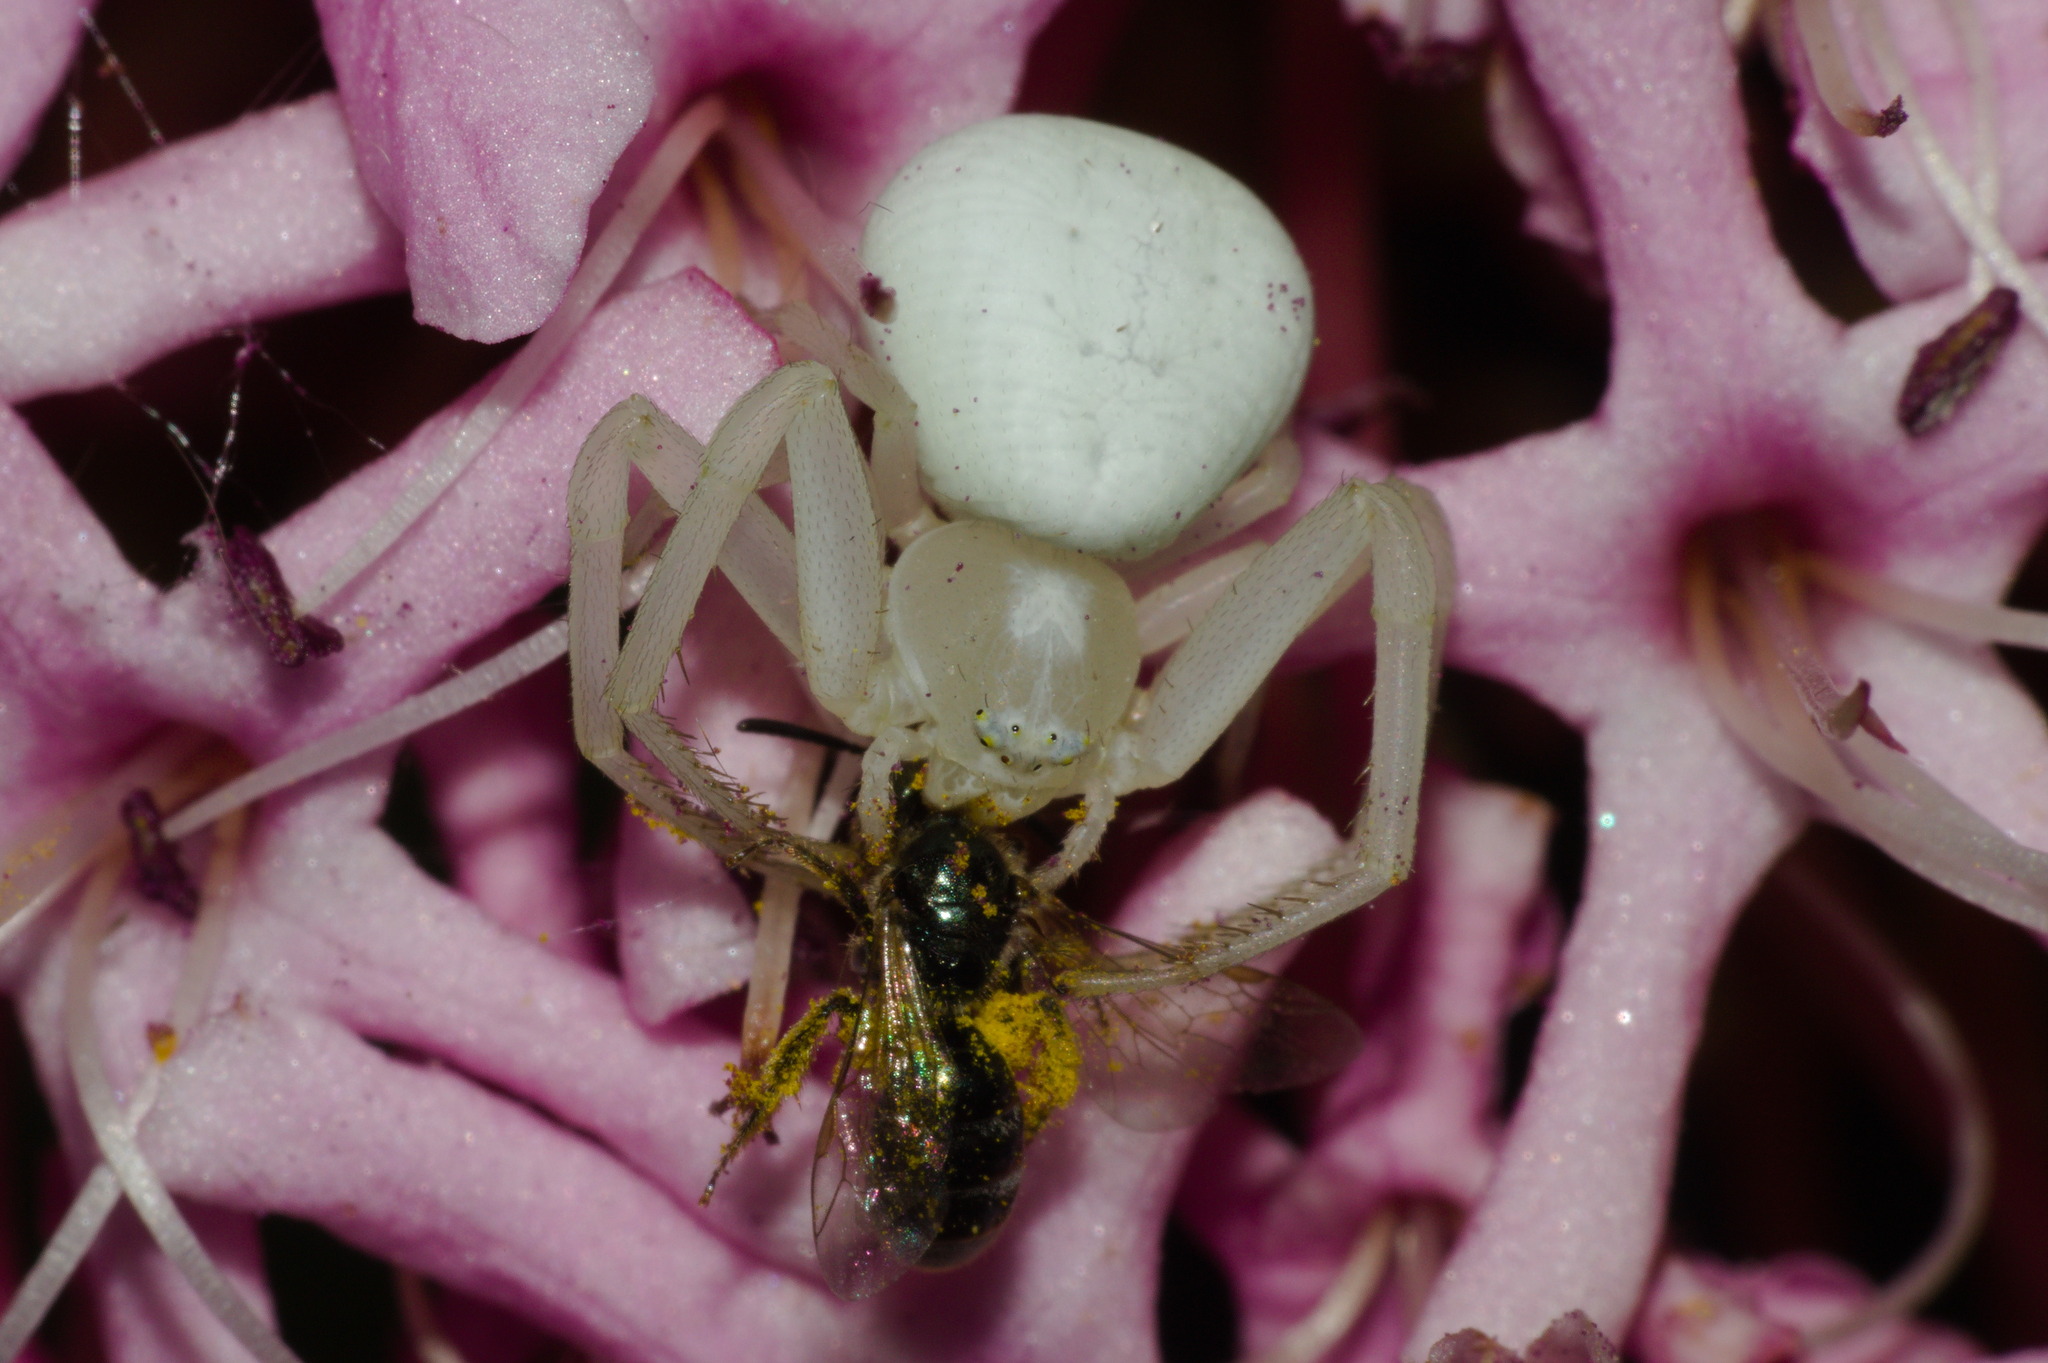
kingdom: Animalia
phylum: Arthropoda
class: Arachnida
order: Araneae
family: Thomisidae
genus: Misumena
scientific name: Misumena vatia
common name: Goldenrod crab spider
